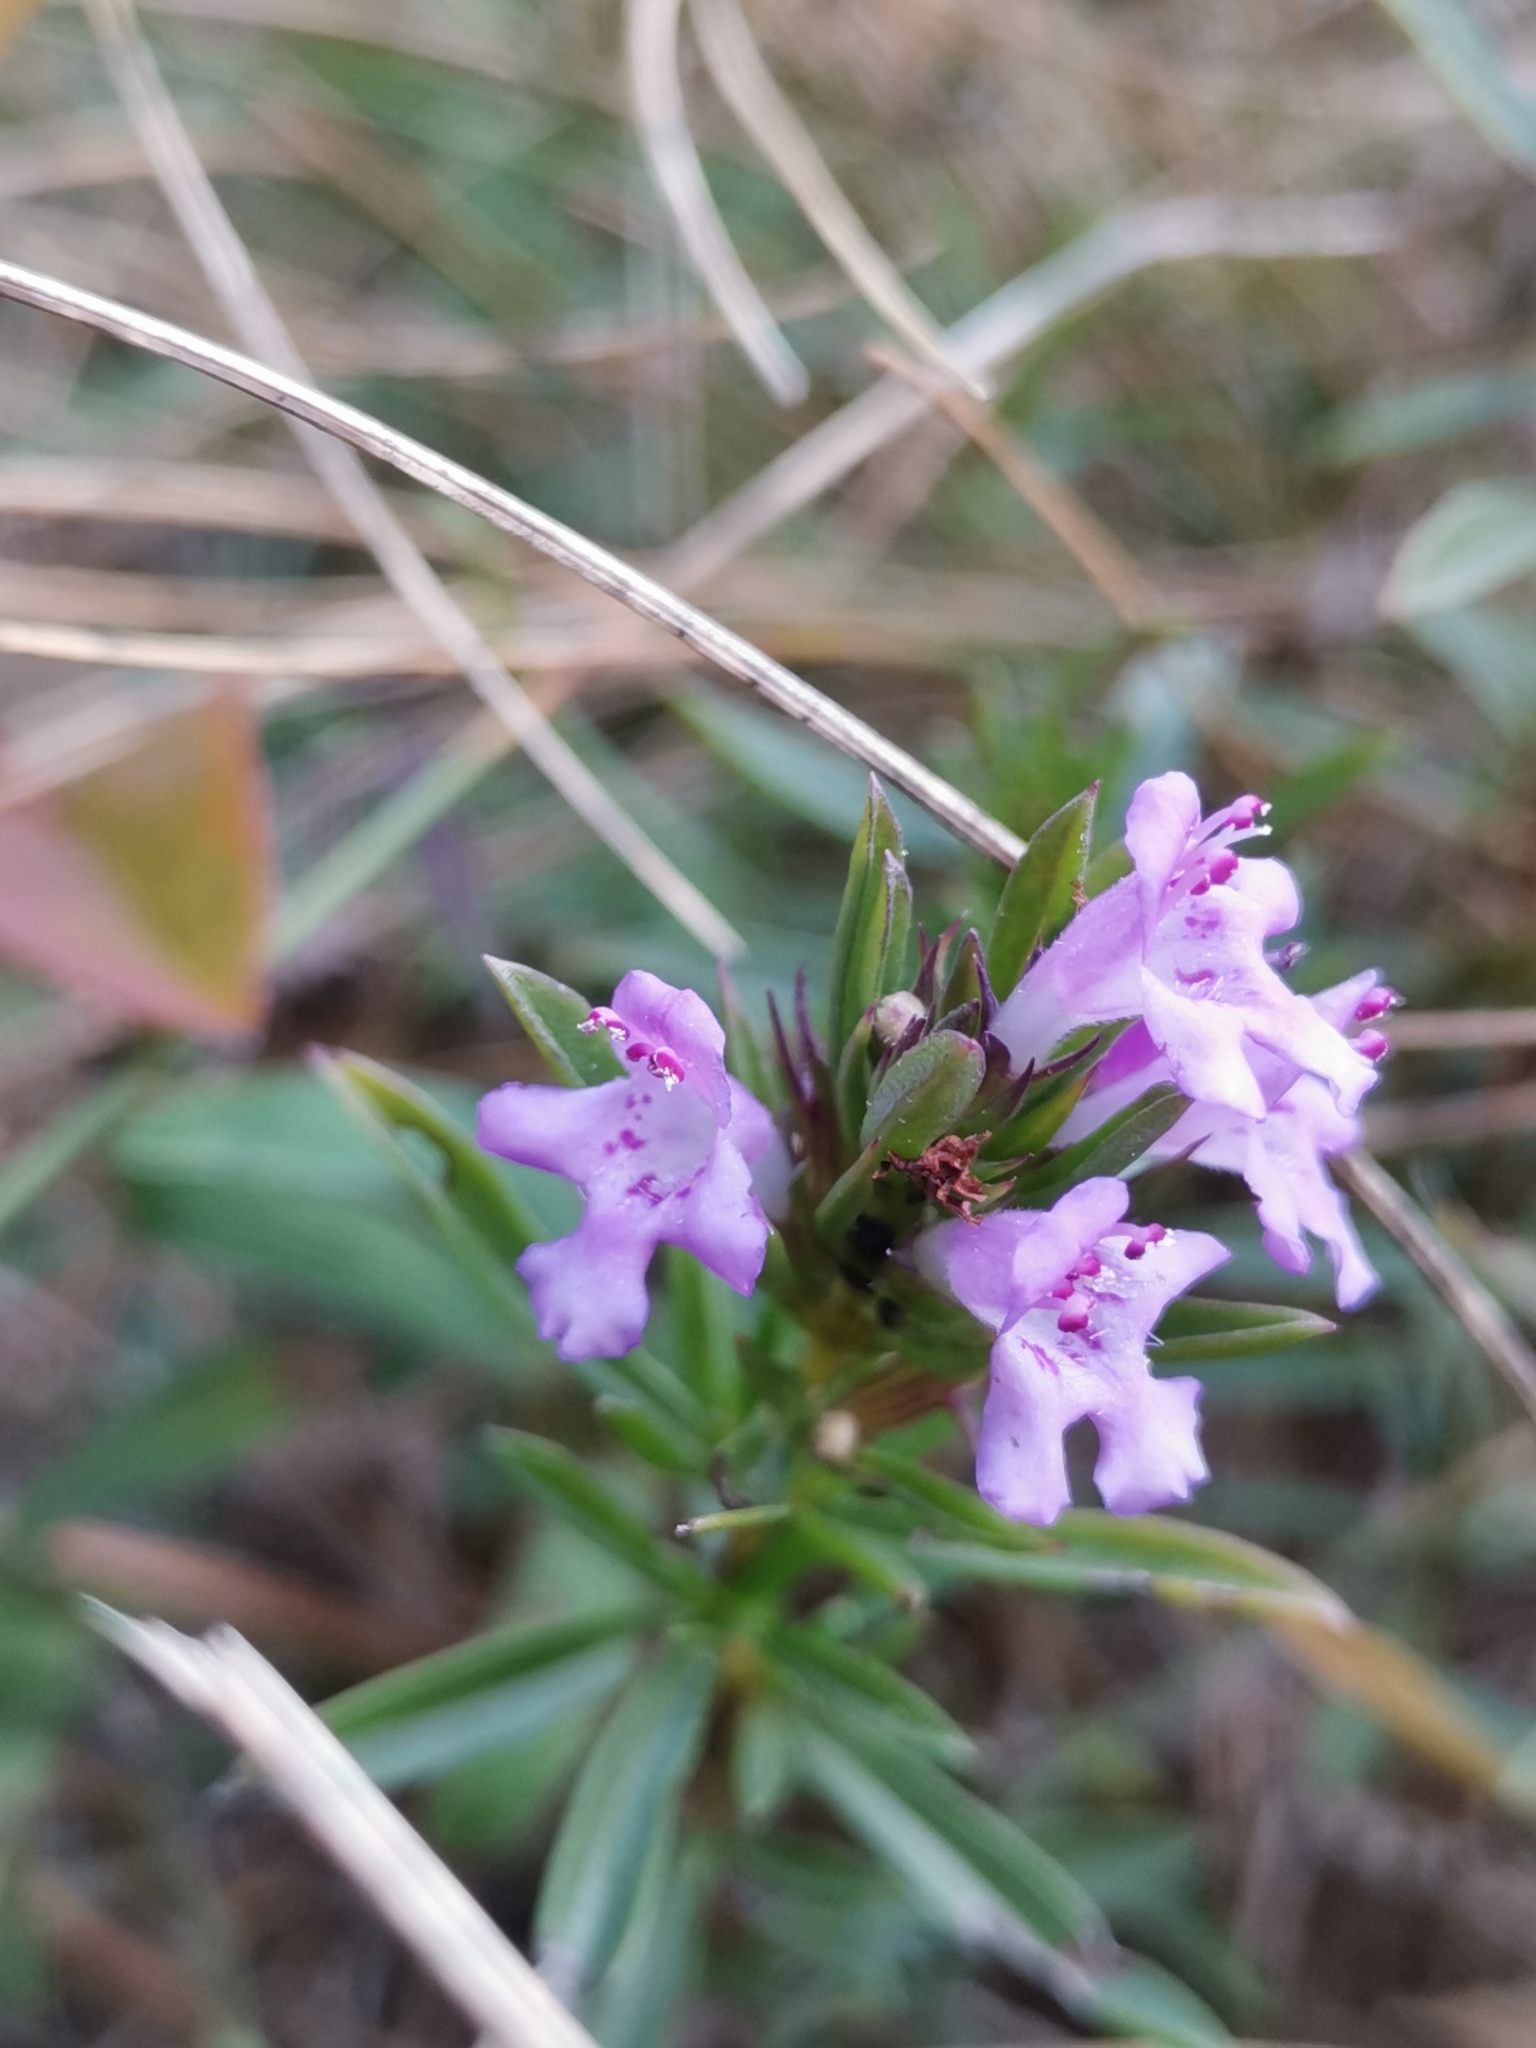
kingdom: Plantae
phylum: Tracheophyta
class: Magnoliopsida
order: Lamiales
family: Lamiaceae
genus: Satureja
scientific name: Satureja subspicata
